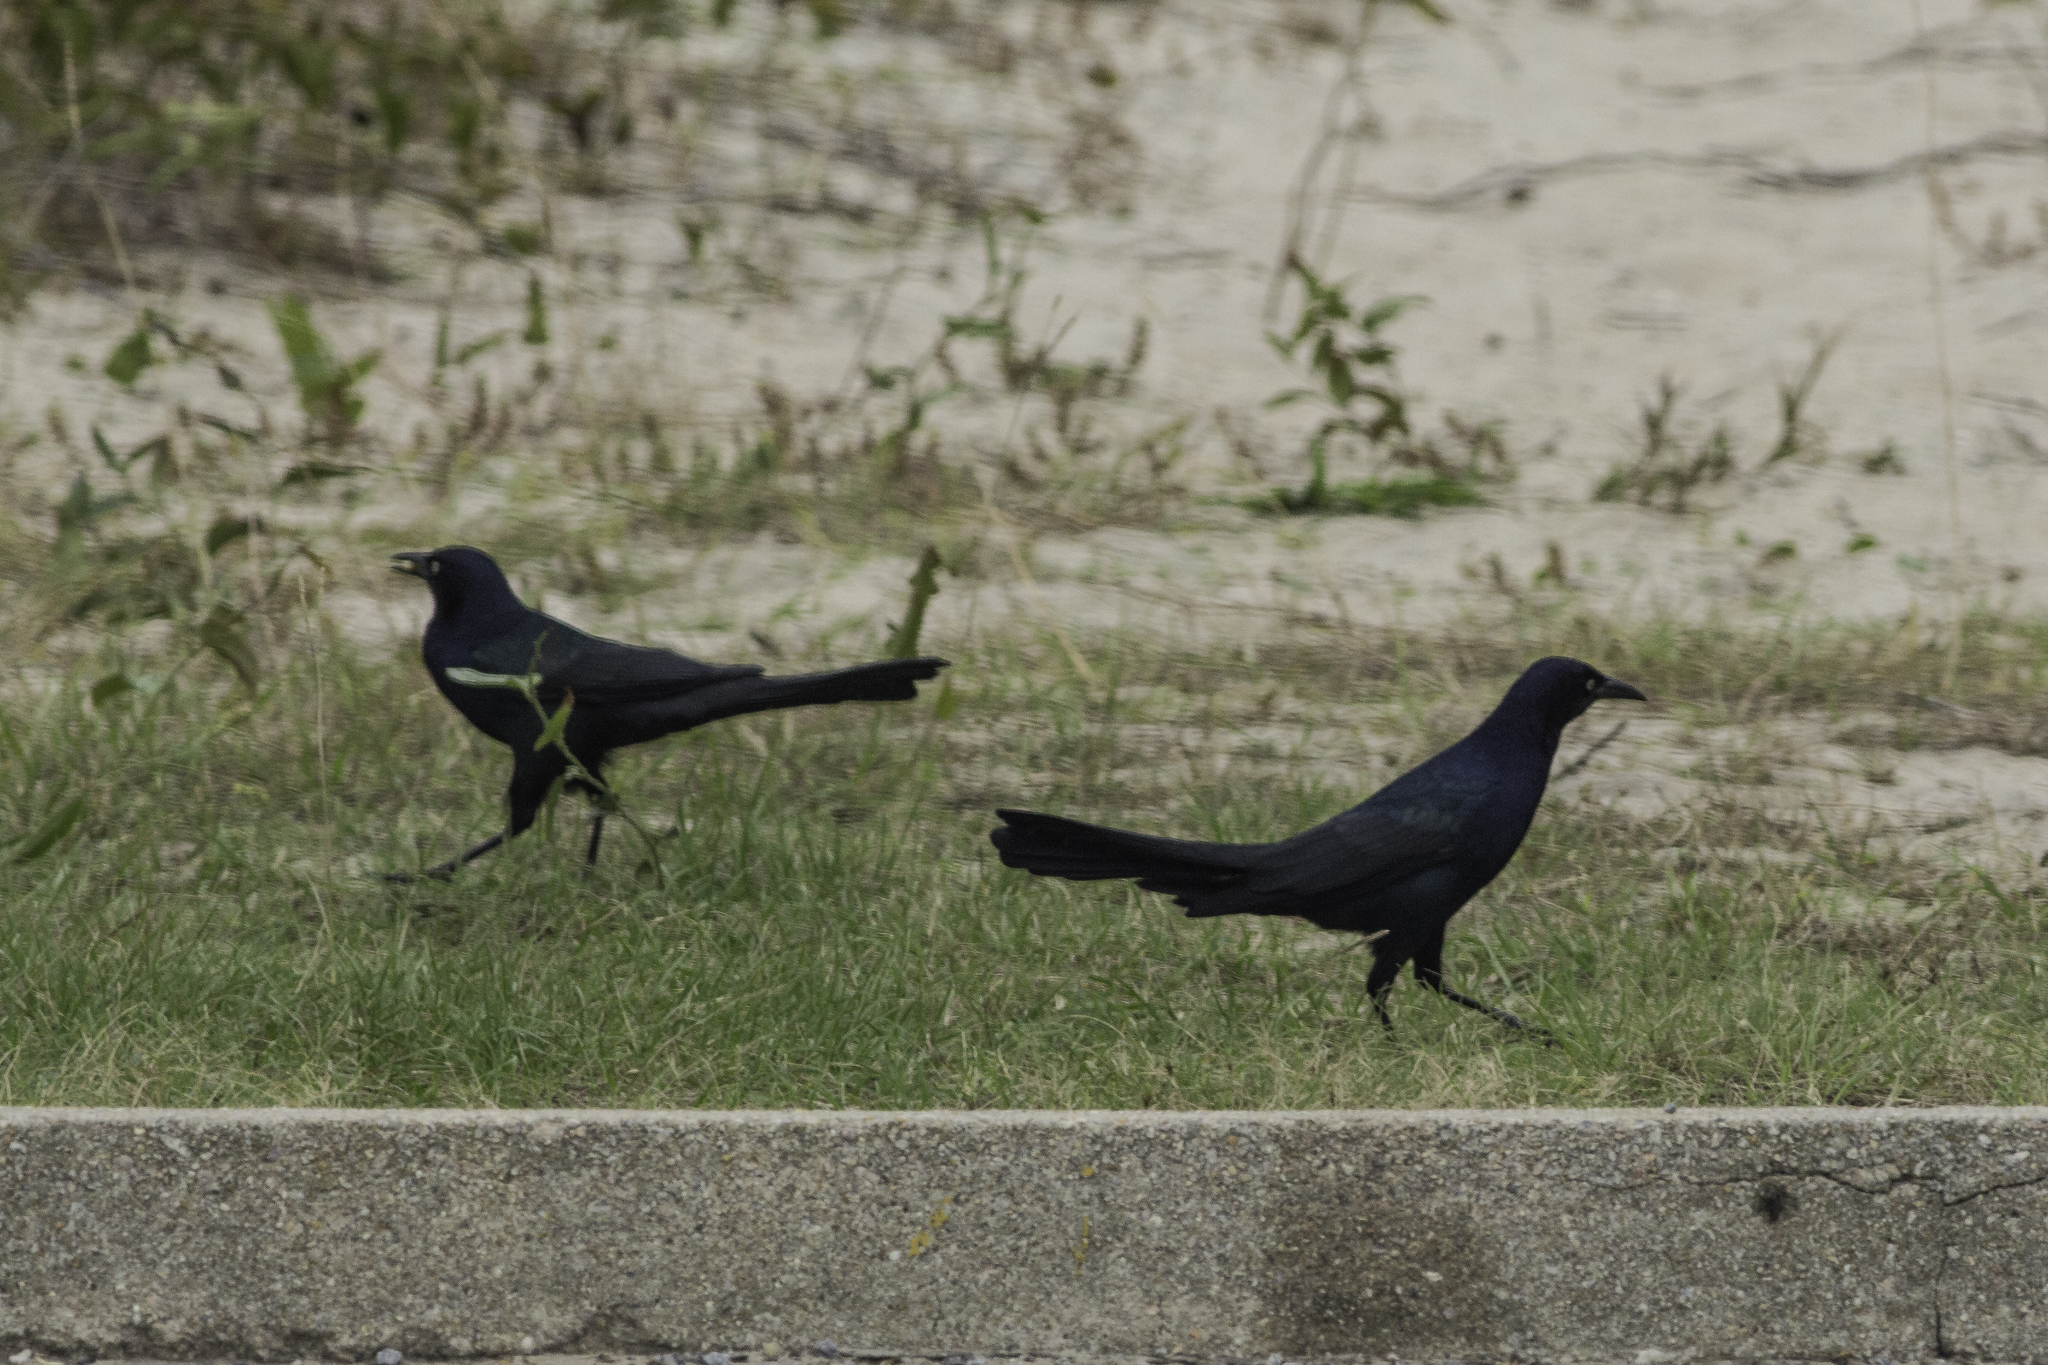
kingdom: Animalia
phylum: Chordata
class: Aves
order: Passeriformes
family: Icteridae
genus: Quiscalus
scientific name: Quiscalus major
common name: Boat-tailed grackle
